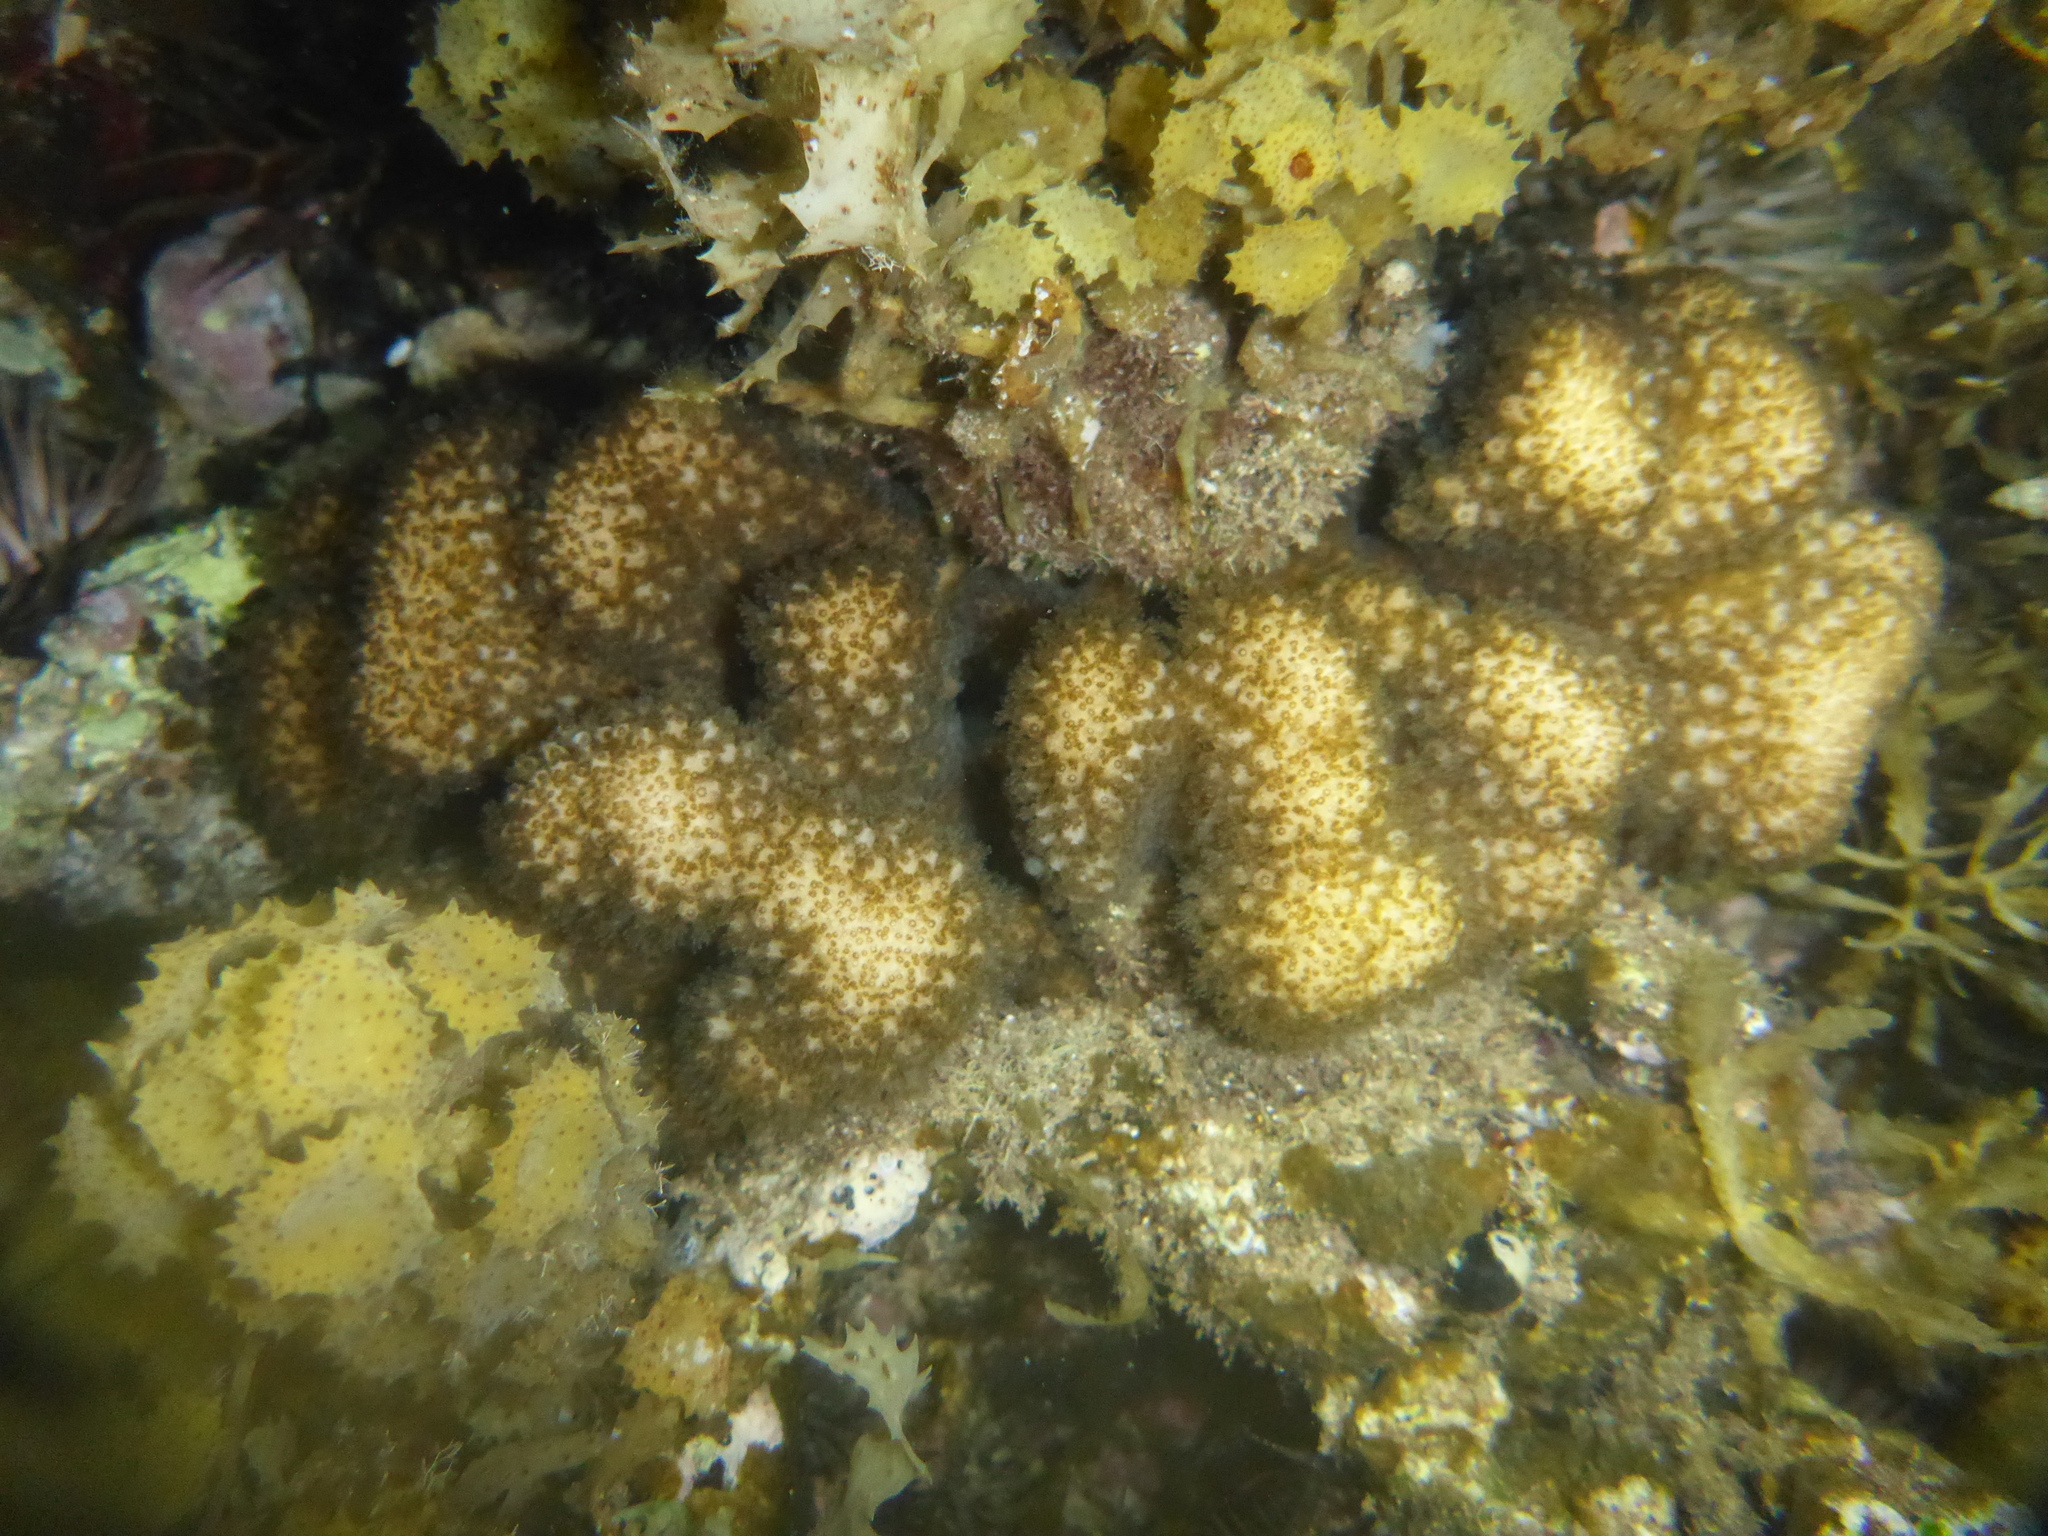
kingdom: Animalia
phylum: Cnidaria
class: Anthozoa
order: Scleractinia
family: Pocilloporidae
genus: Pocillopora
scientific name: Pocillopora meandrina
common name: Cauliflower coral
